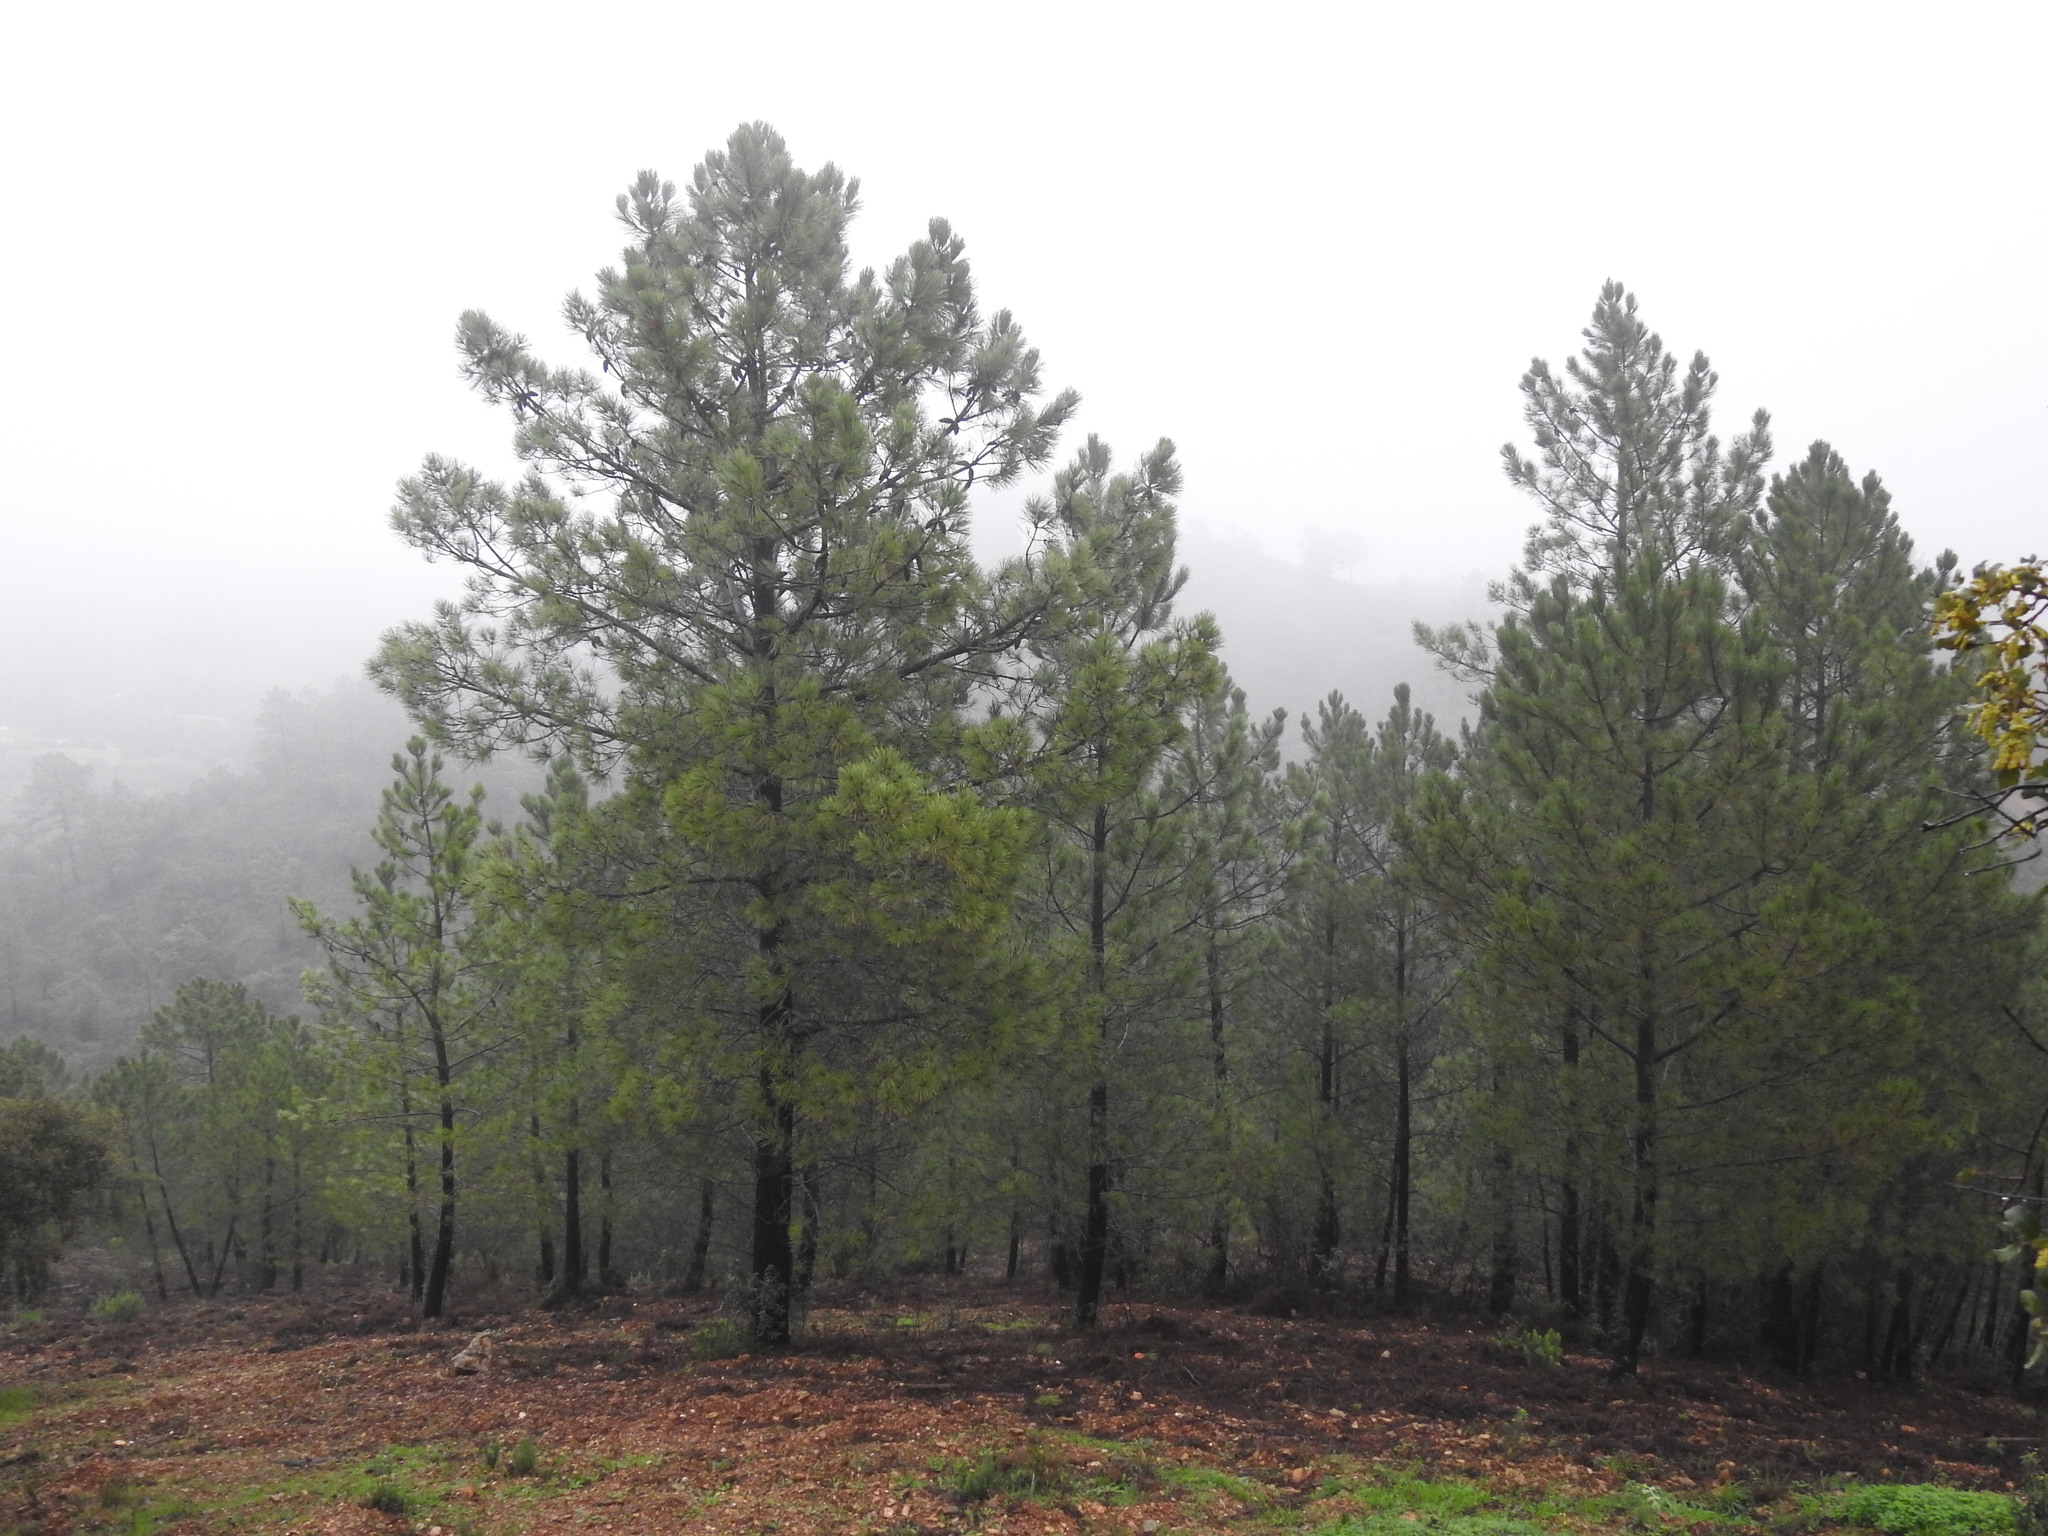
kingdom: Plantae
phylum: Tracheophyta
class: Pinopsida
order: Pinales
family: Pinaceae
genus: Pinus
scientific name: Pinus pinaster
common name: Maritime pine
